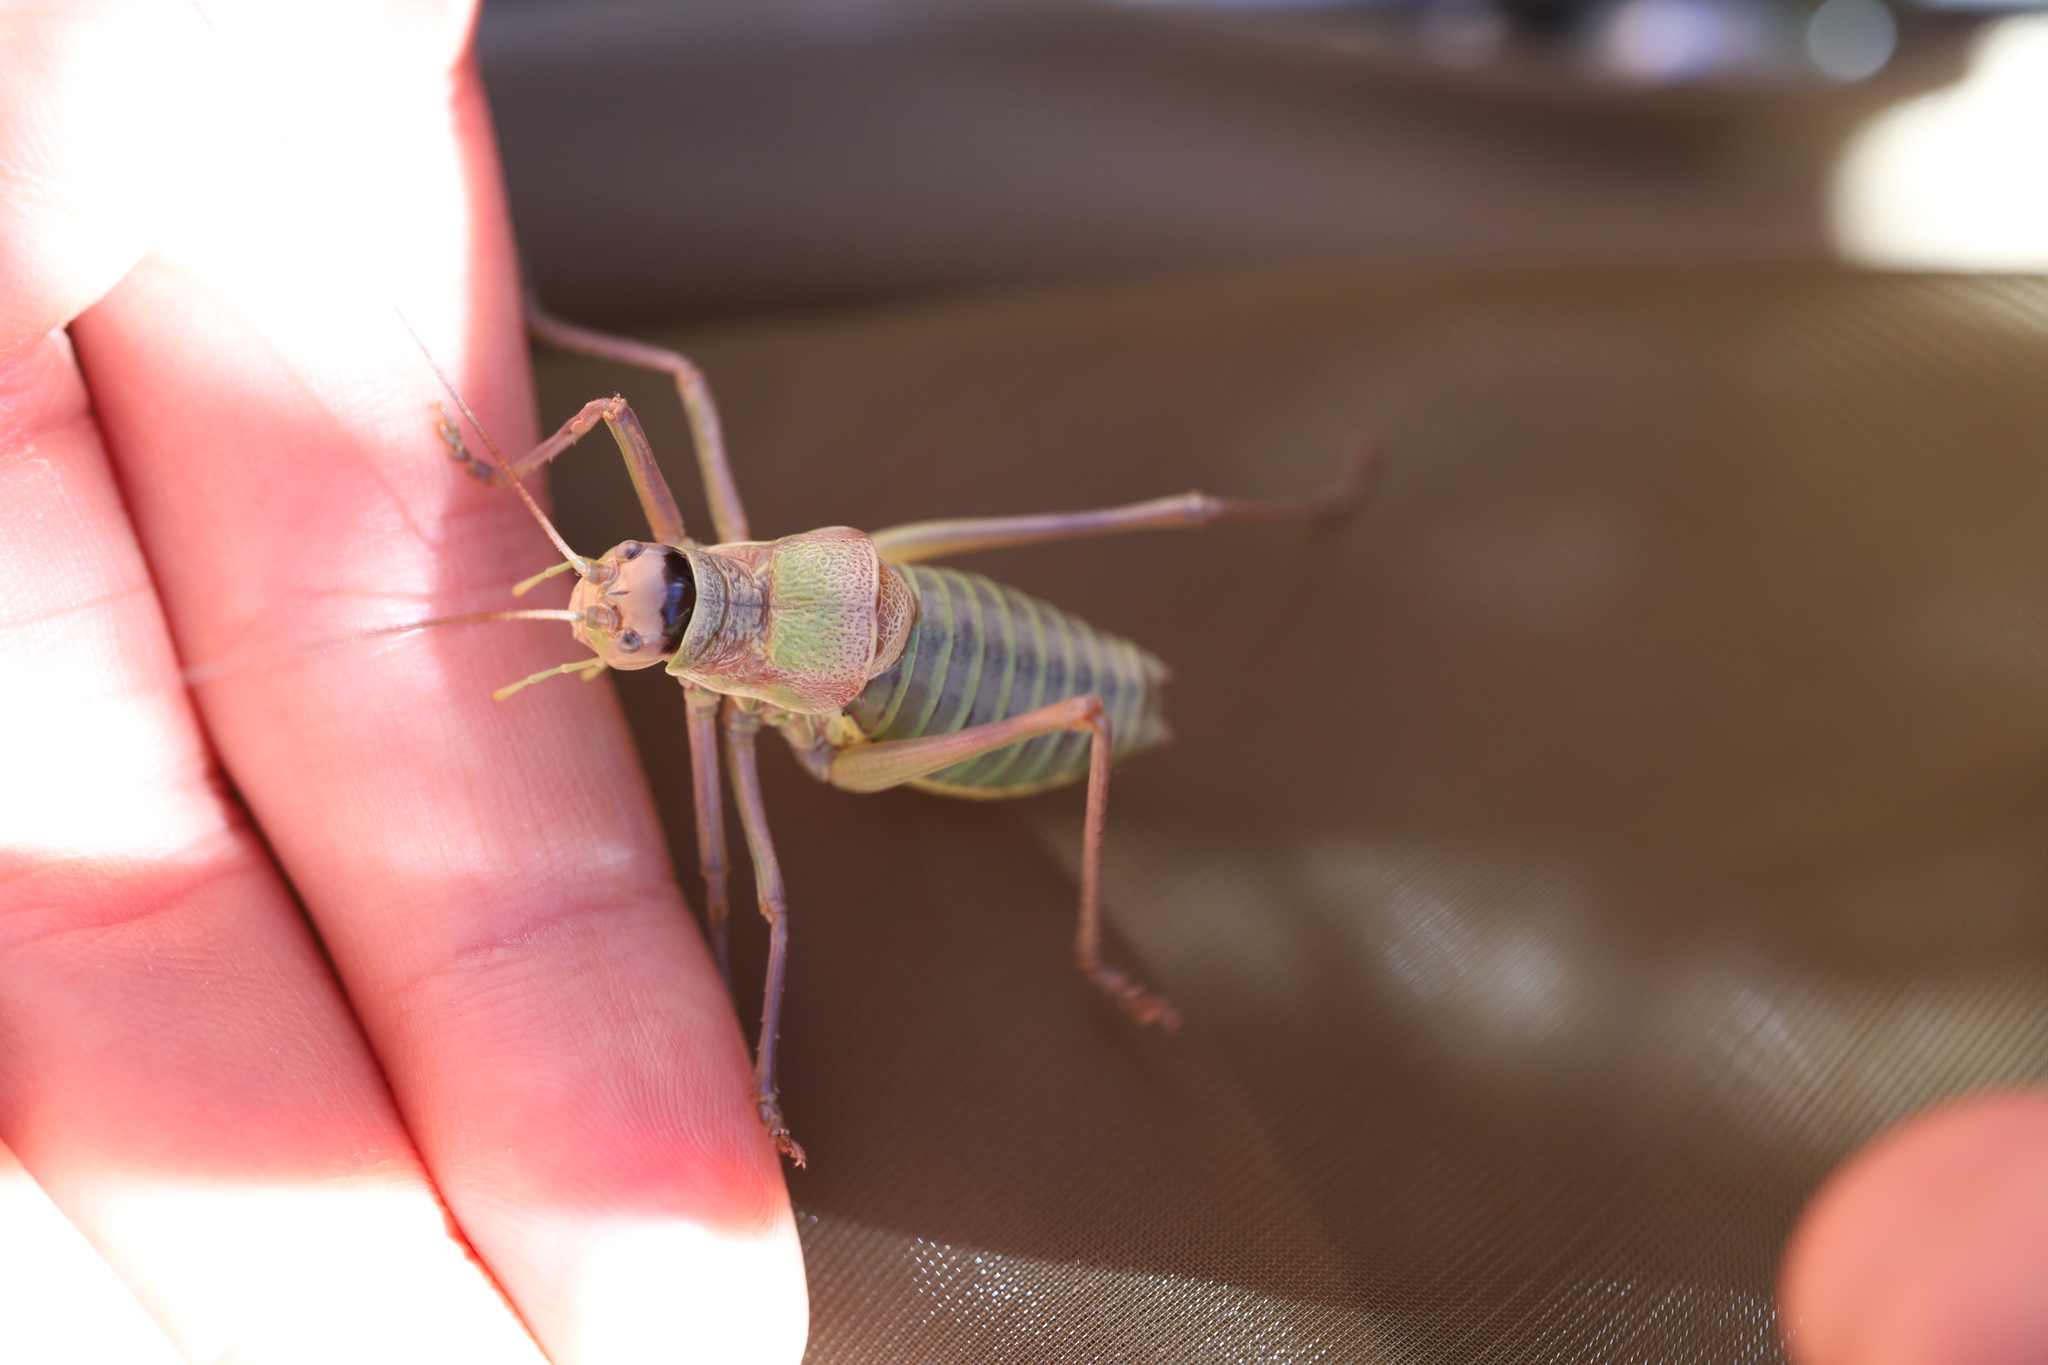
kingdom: Animalia
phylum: Arthropoda
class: Insecta
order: Orthoptera
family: Tettigoniidae
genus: Ephippiger
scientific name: Ephippiger diurnus
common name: Western saddle bush-cricket
